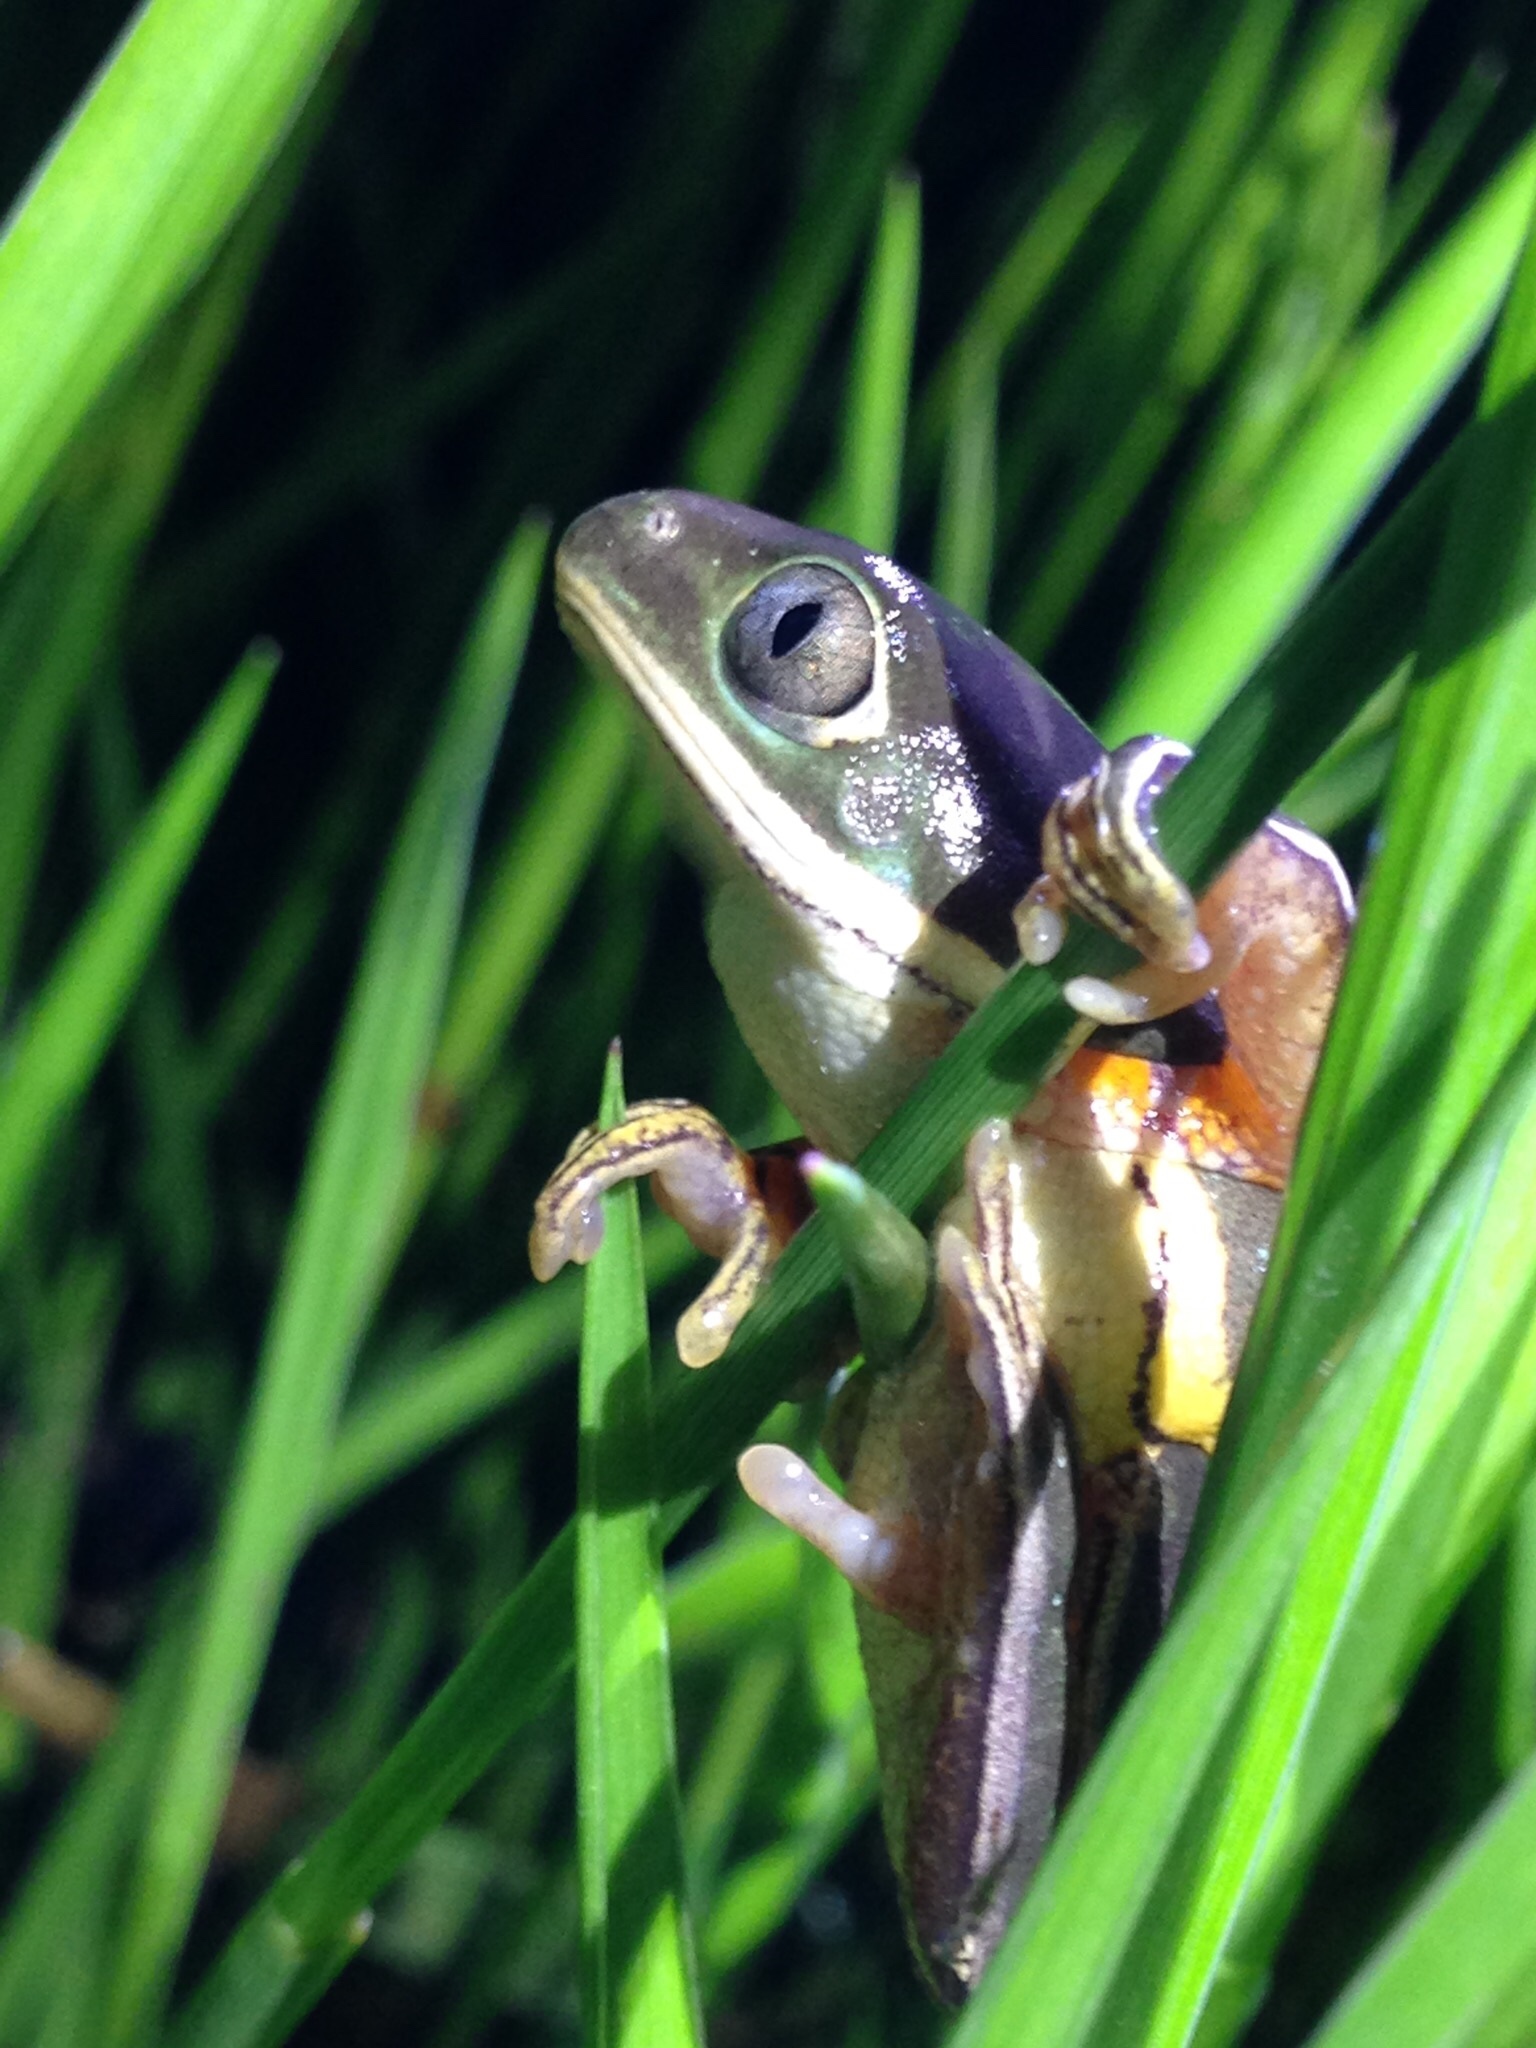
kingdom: Animalia
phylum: Chordata
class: Amphibia
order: Anura
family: Phyllomedusidae
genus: Pithecopus
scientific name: Pithecopus azureus
